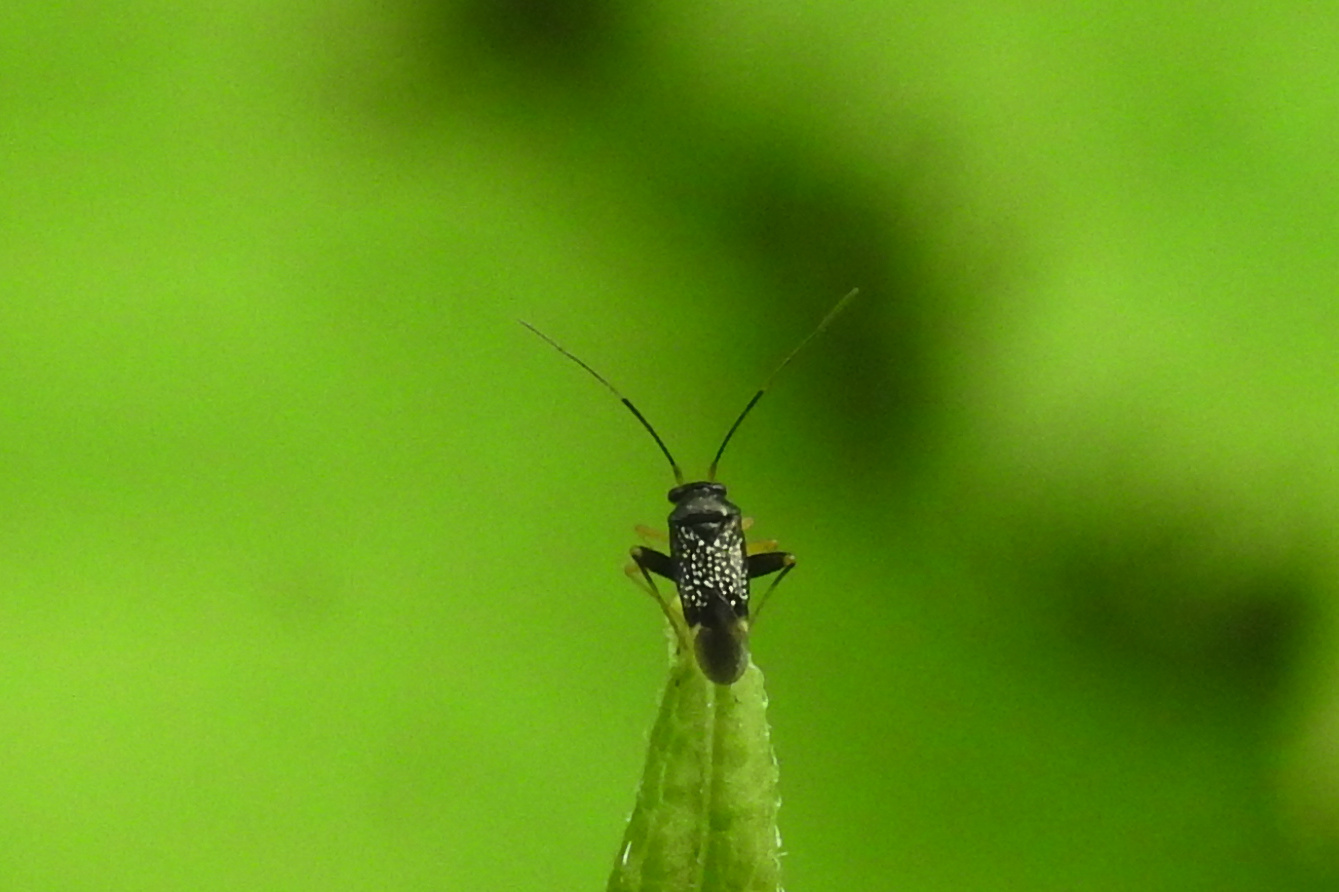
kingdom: Animalia
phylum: Arthropoda
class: Insecta
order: Hemiptera
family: Miridae
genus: Microtechnites
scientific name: Microtechnites bractatus
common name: Garden fleahopper
